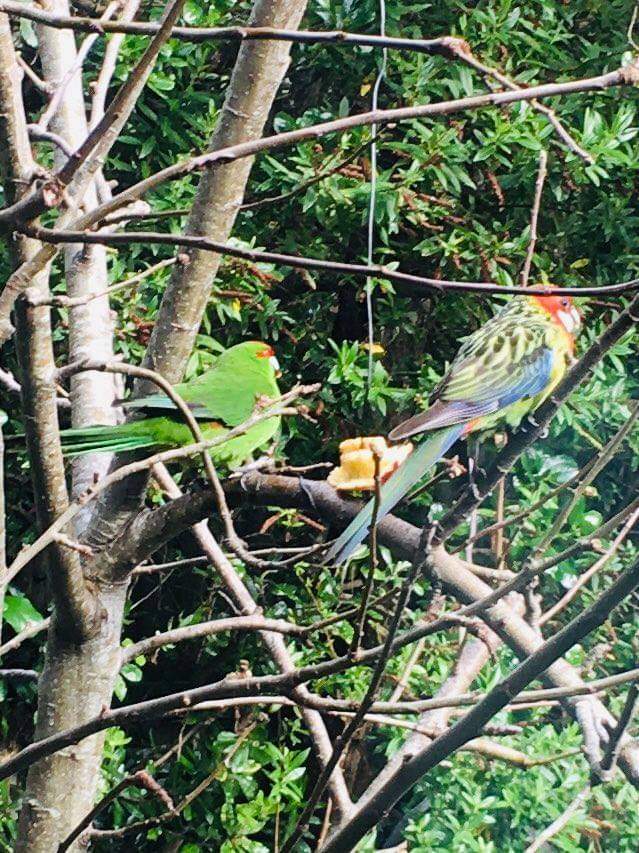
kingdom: Animalia
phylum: Chordata
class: Aves
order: Psittaciformes
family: Psittacidae
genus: Cyanoramphus
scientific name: Cyanoramphus novaezelandiae
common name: Red-fronted parakeet
